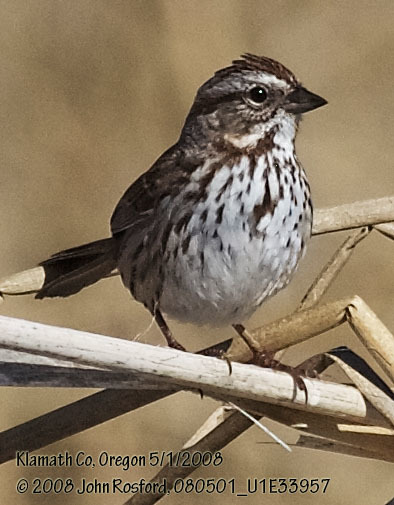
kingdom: Animalia
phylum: Chordata
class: Aves
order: Passeriformes
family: Passerellidae
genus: Melospiza
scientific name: Melospiza melodia
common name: Song sparrow
